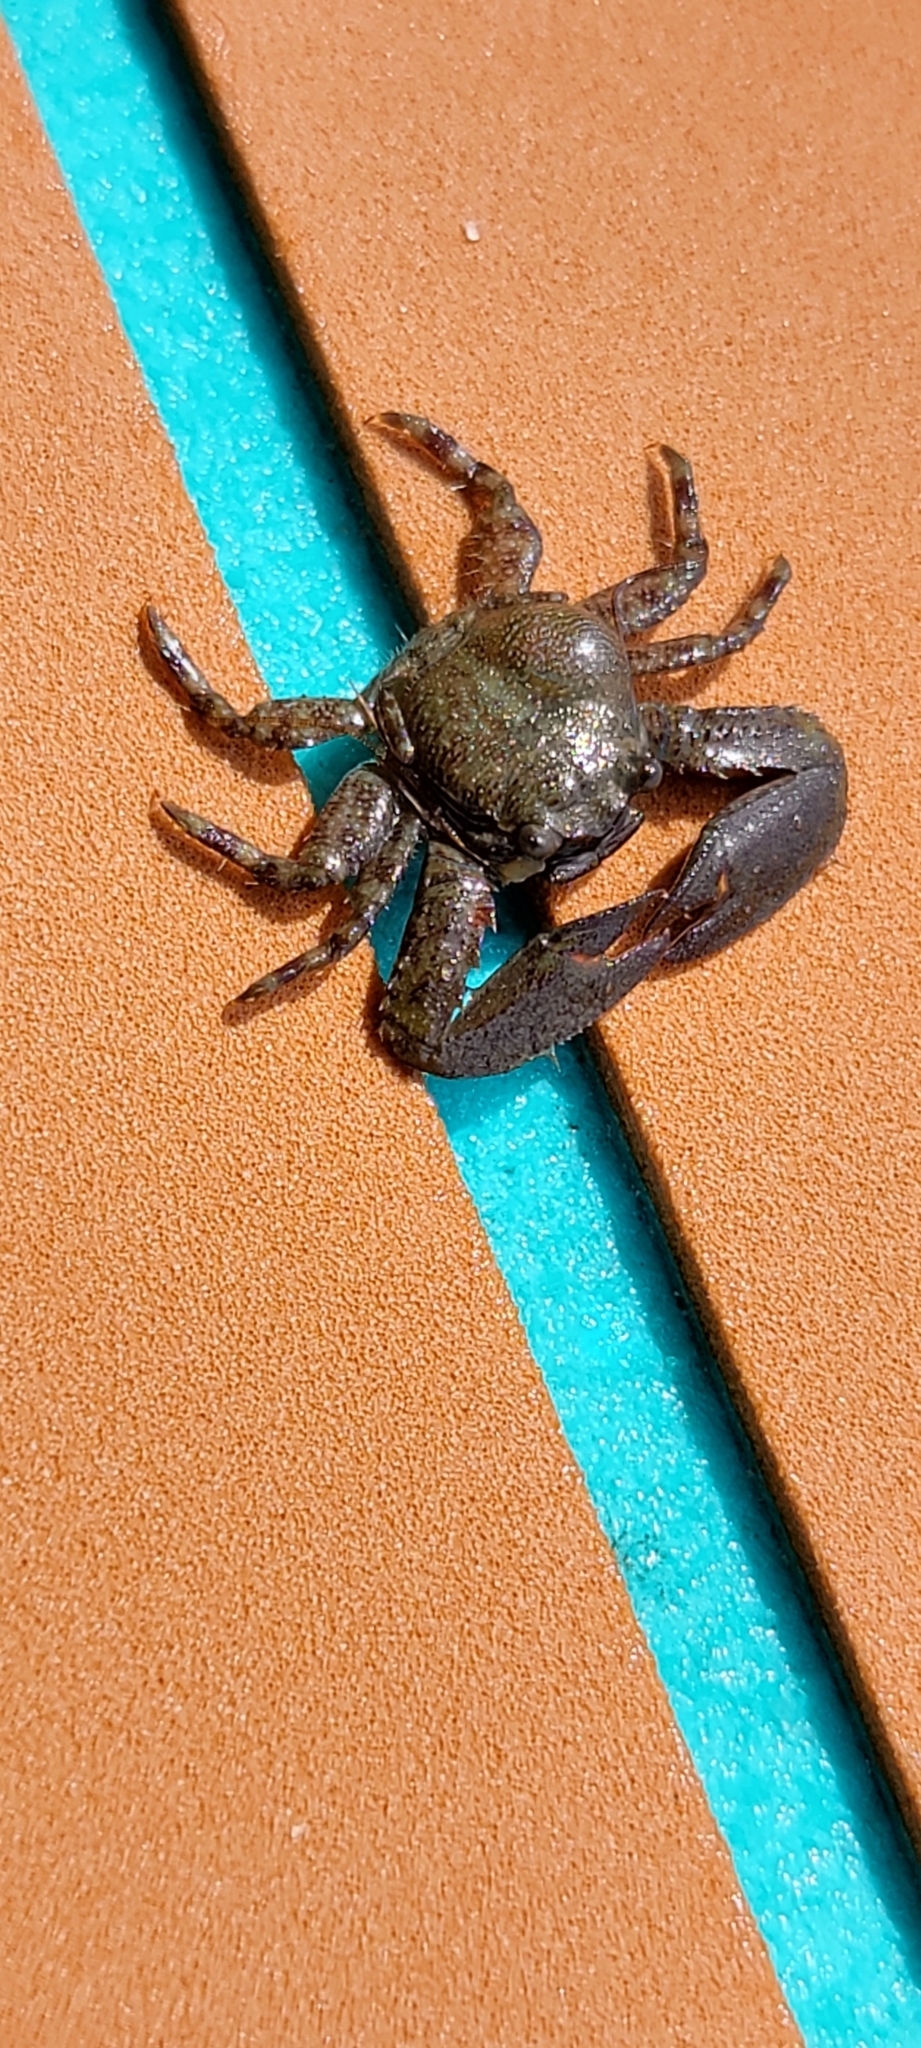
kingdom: Animalia
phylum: Arthropoda
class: Malacostraca
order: Decapoda
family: Porcellanidae
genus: Petrolisthes
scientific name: Petrolisthes armatus
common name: Green porcelain crab
